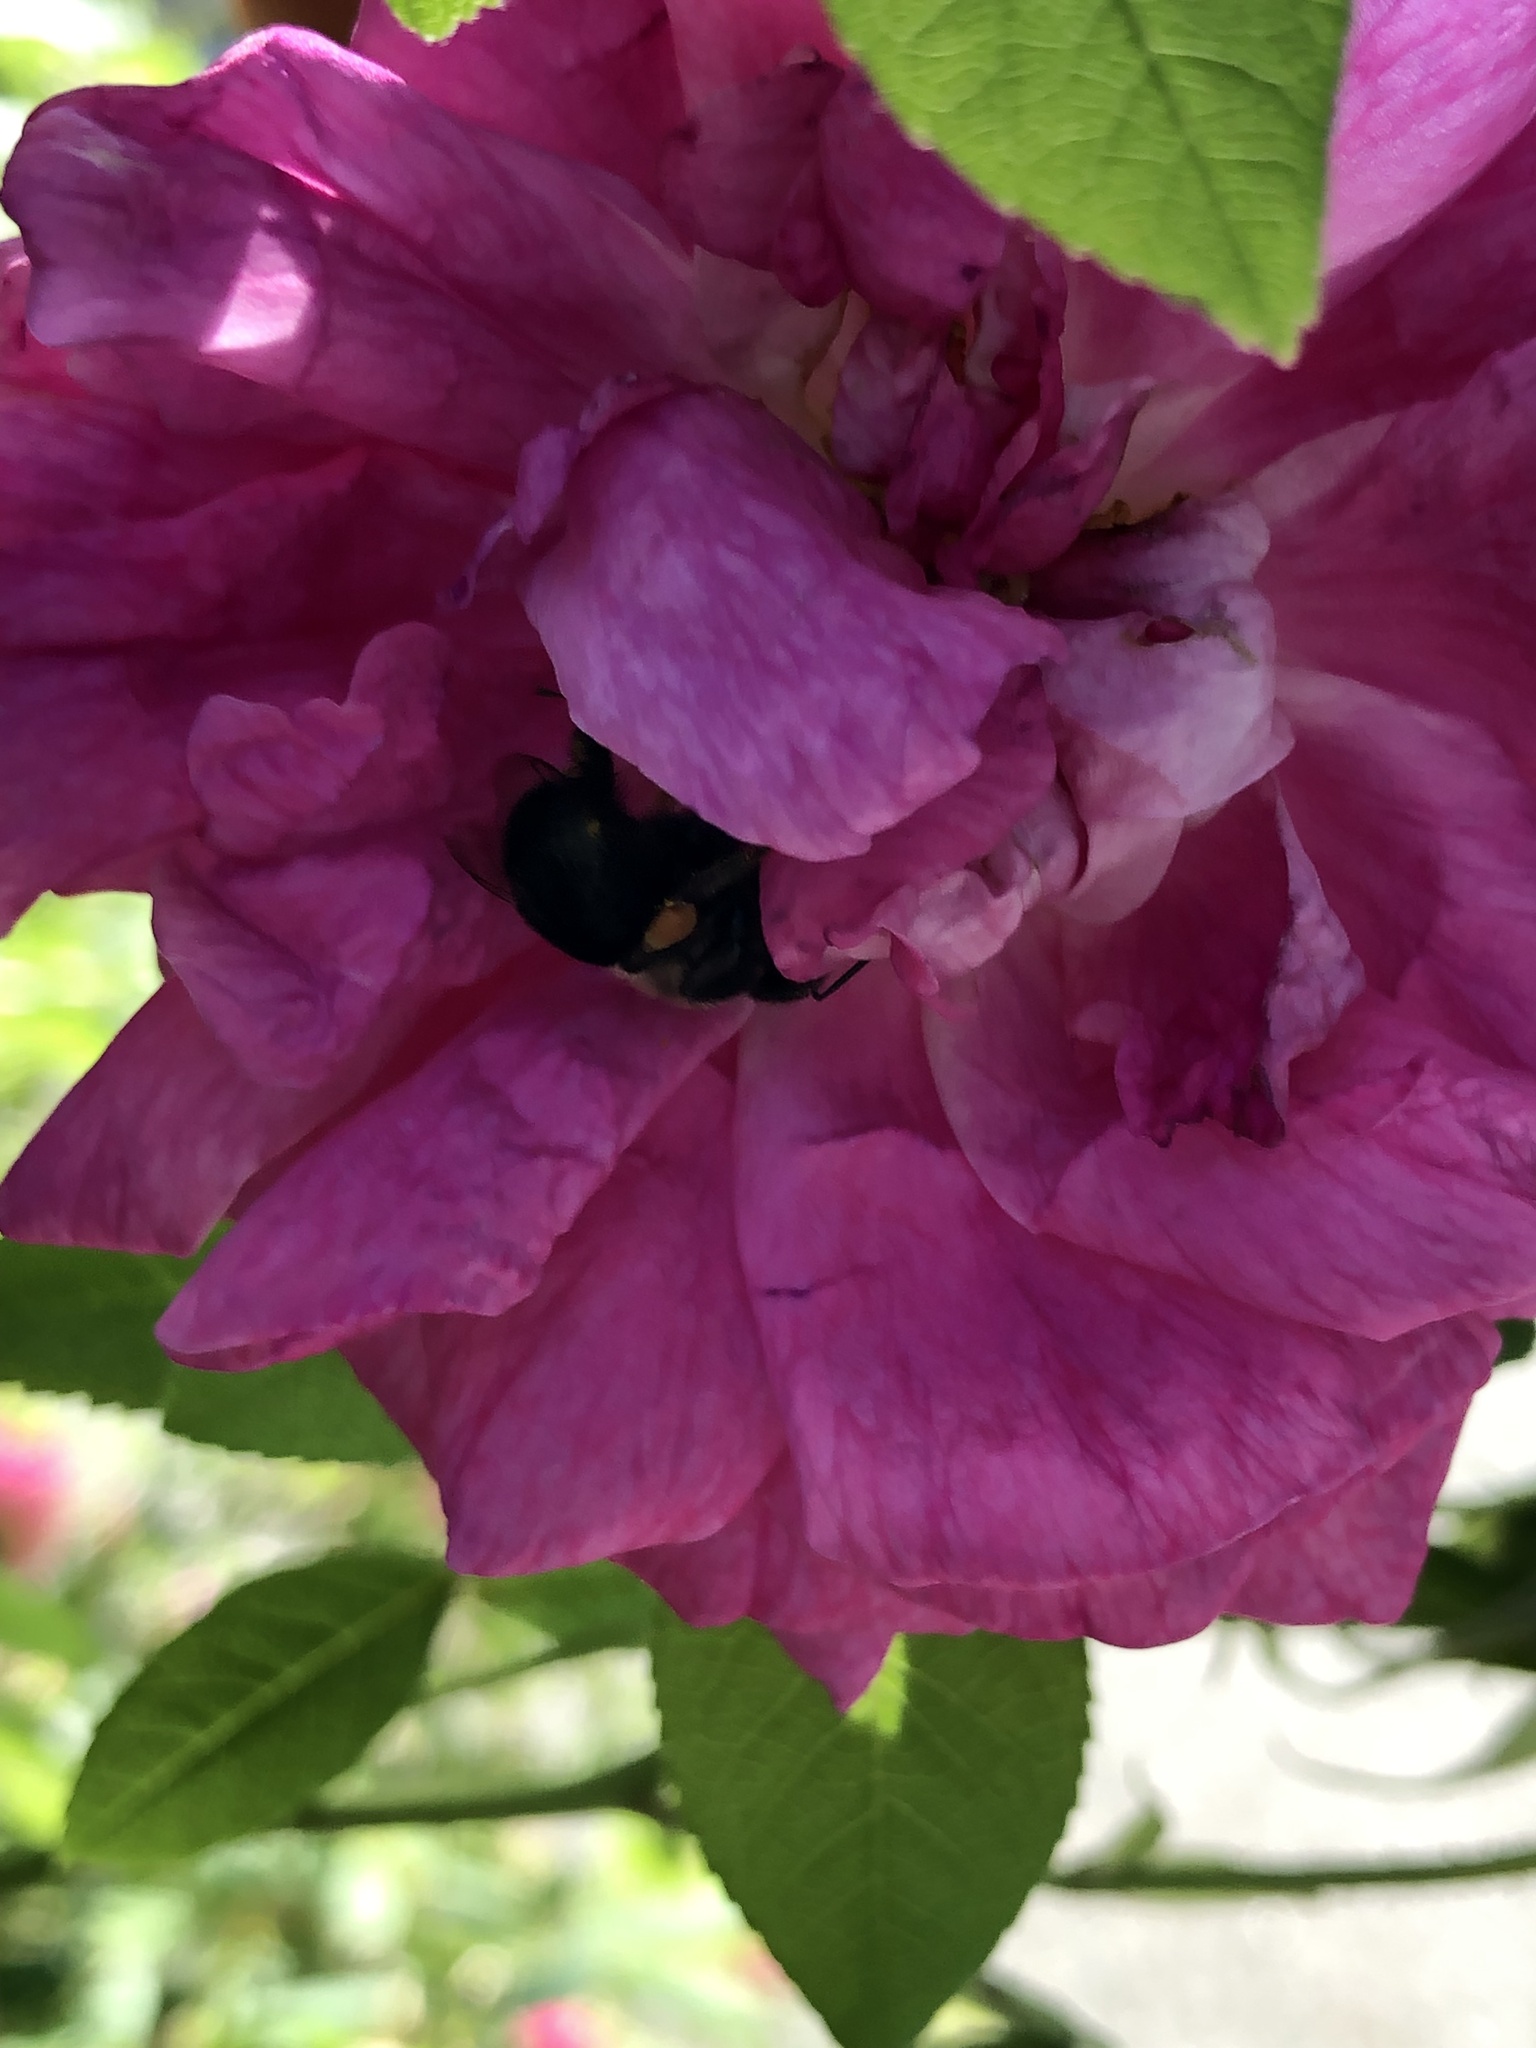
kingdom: Animalia
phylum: Arthropoda
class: Insecta
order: Hymenoptera
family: Apidae
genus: Bombus
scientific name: Bombus
